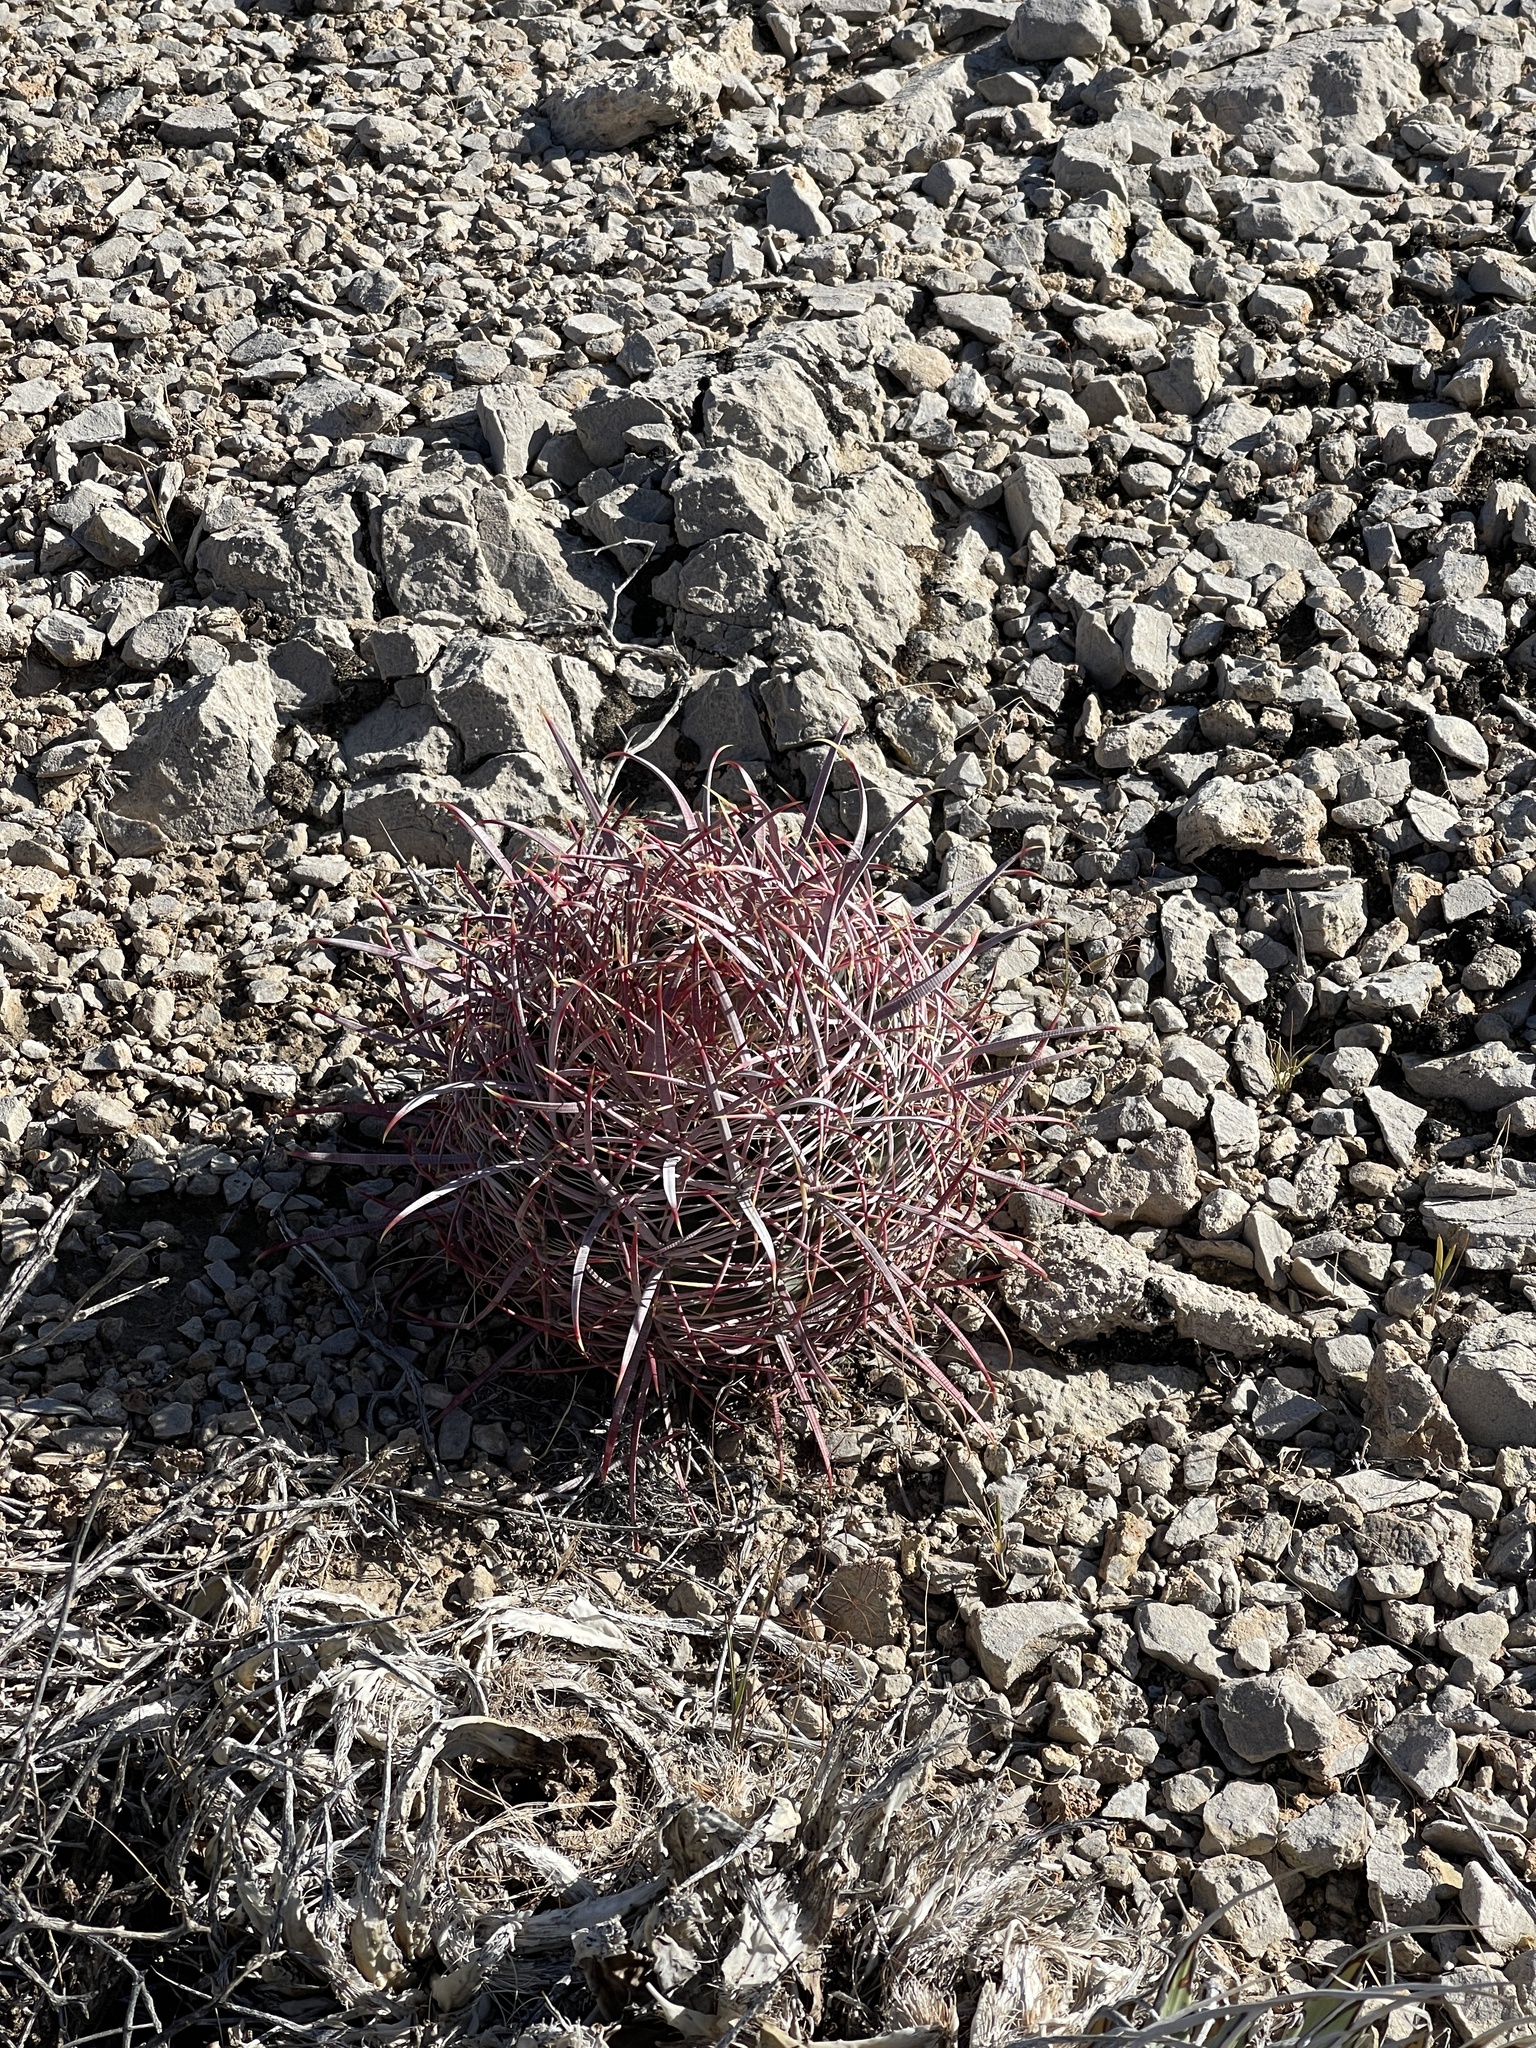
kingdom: Plantae
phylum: Tracheophyta
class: Magnoliopsida
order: Caryophyllales
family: Cactaceae
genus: Ferocactus
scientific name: Ferocactus cylindraceus
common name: California barrel cactus
